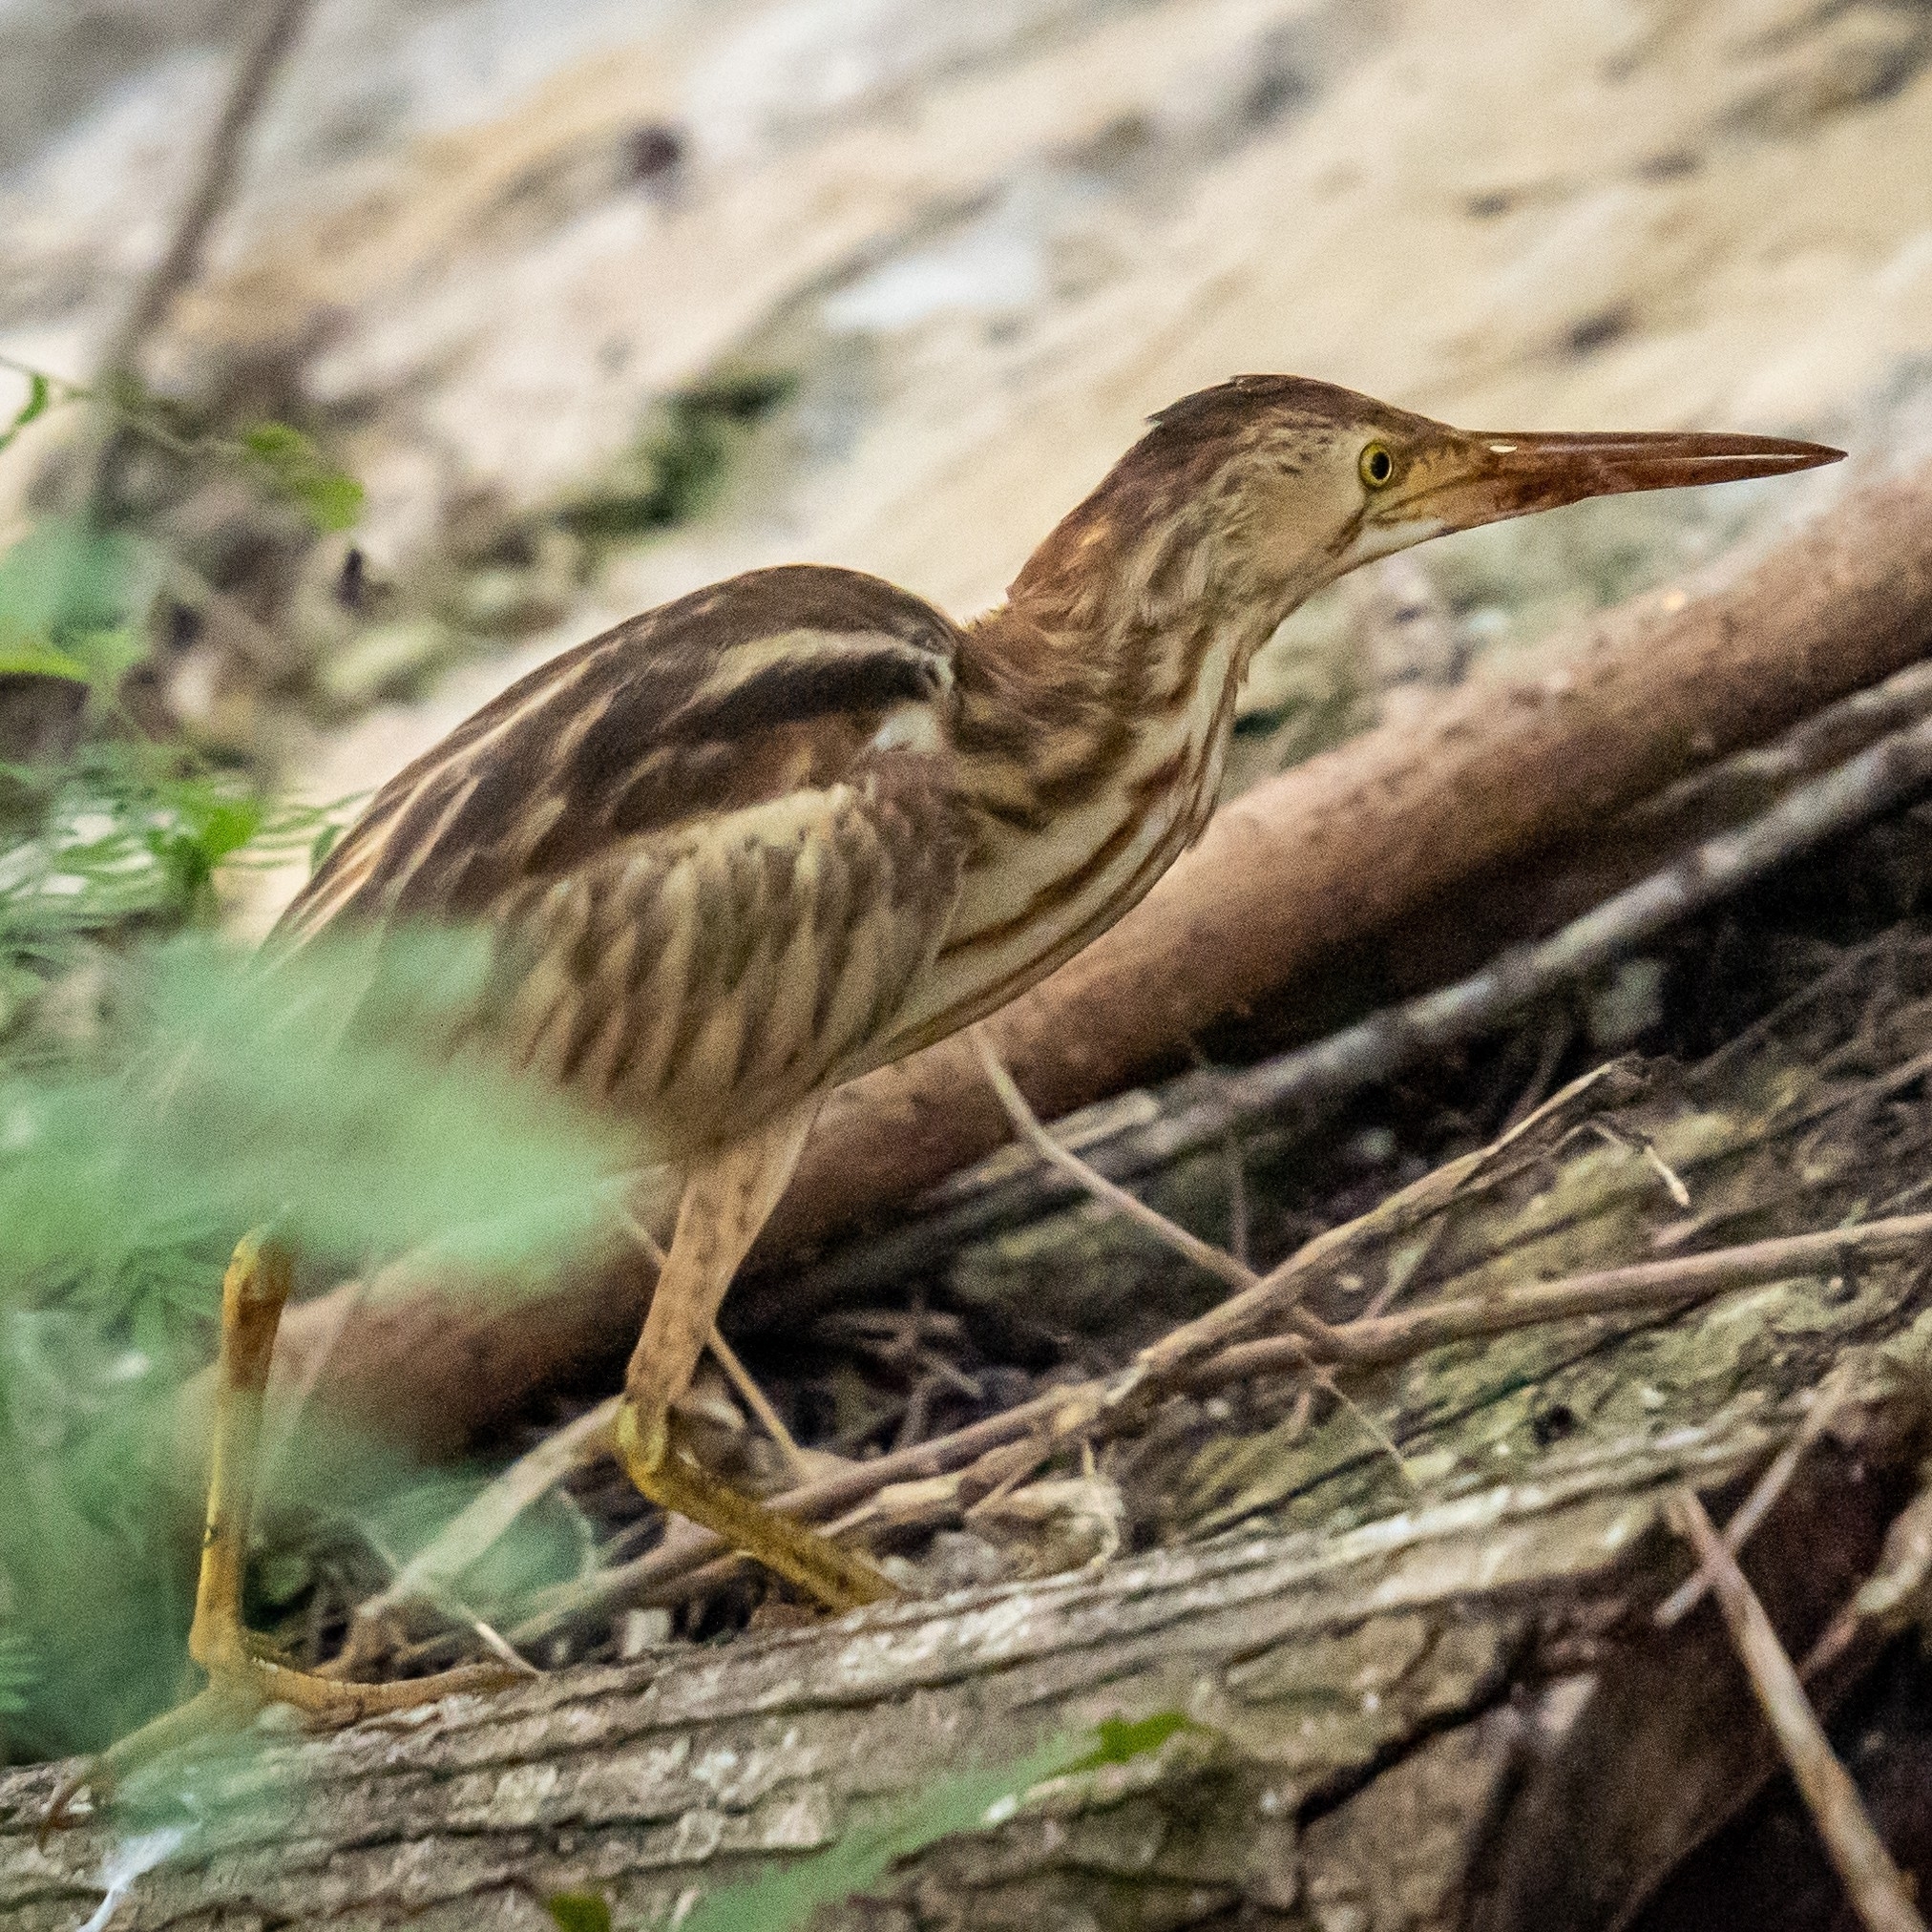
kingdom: Animalia
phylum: Chordata
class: Aves
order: Pelecaniformes
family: Ardeidae
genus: Ixobrychus
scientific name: Ixobrychus sinensis
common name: Yellow bittern
